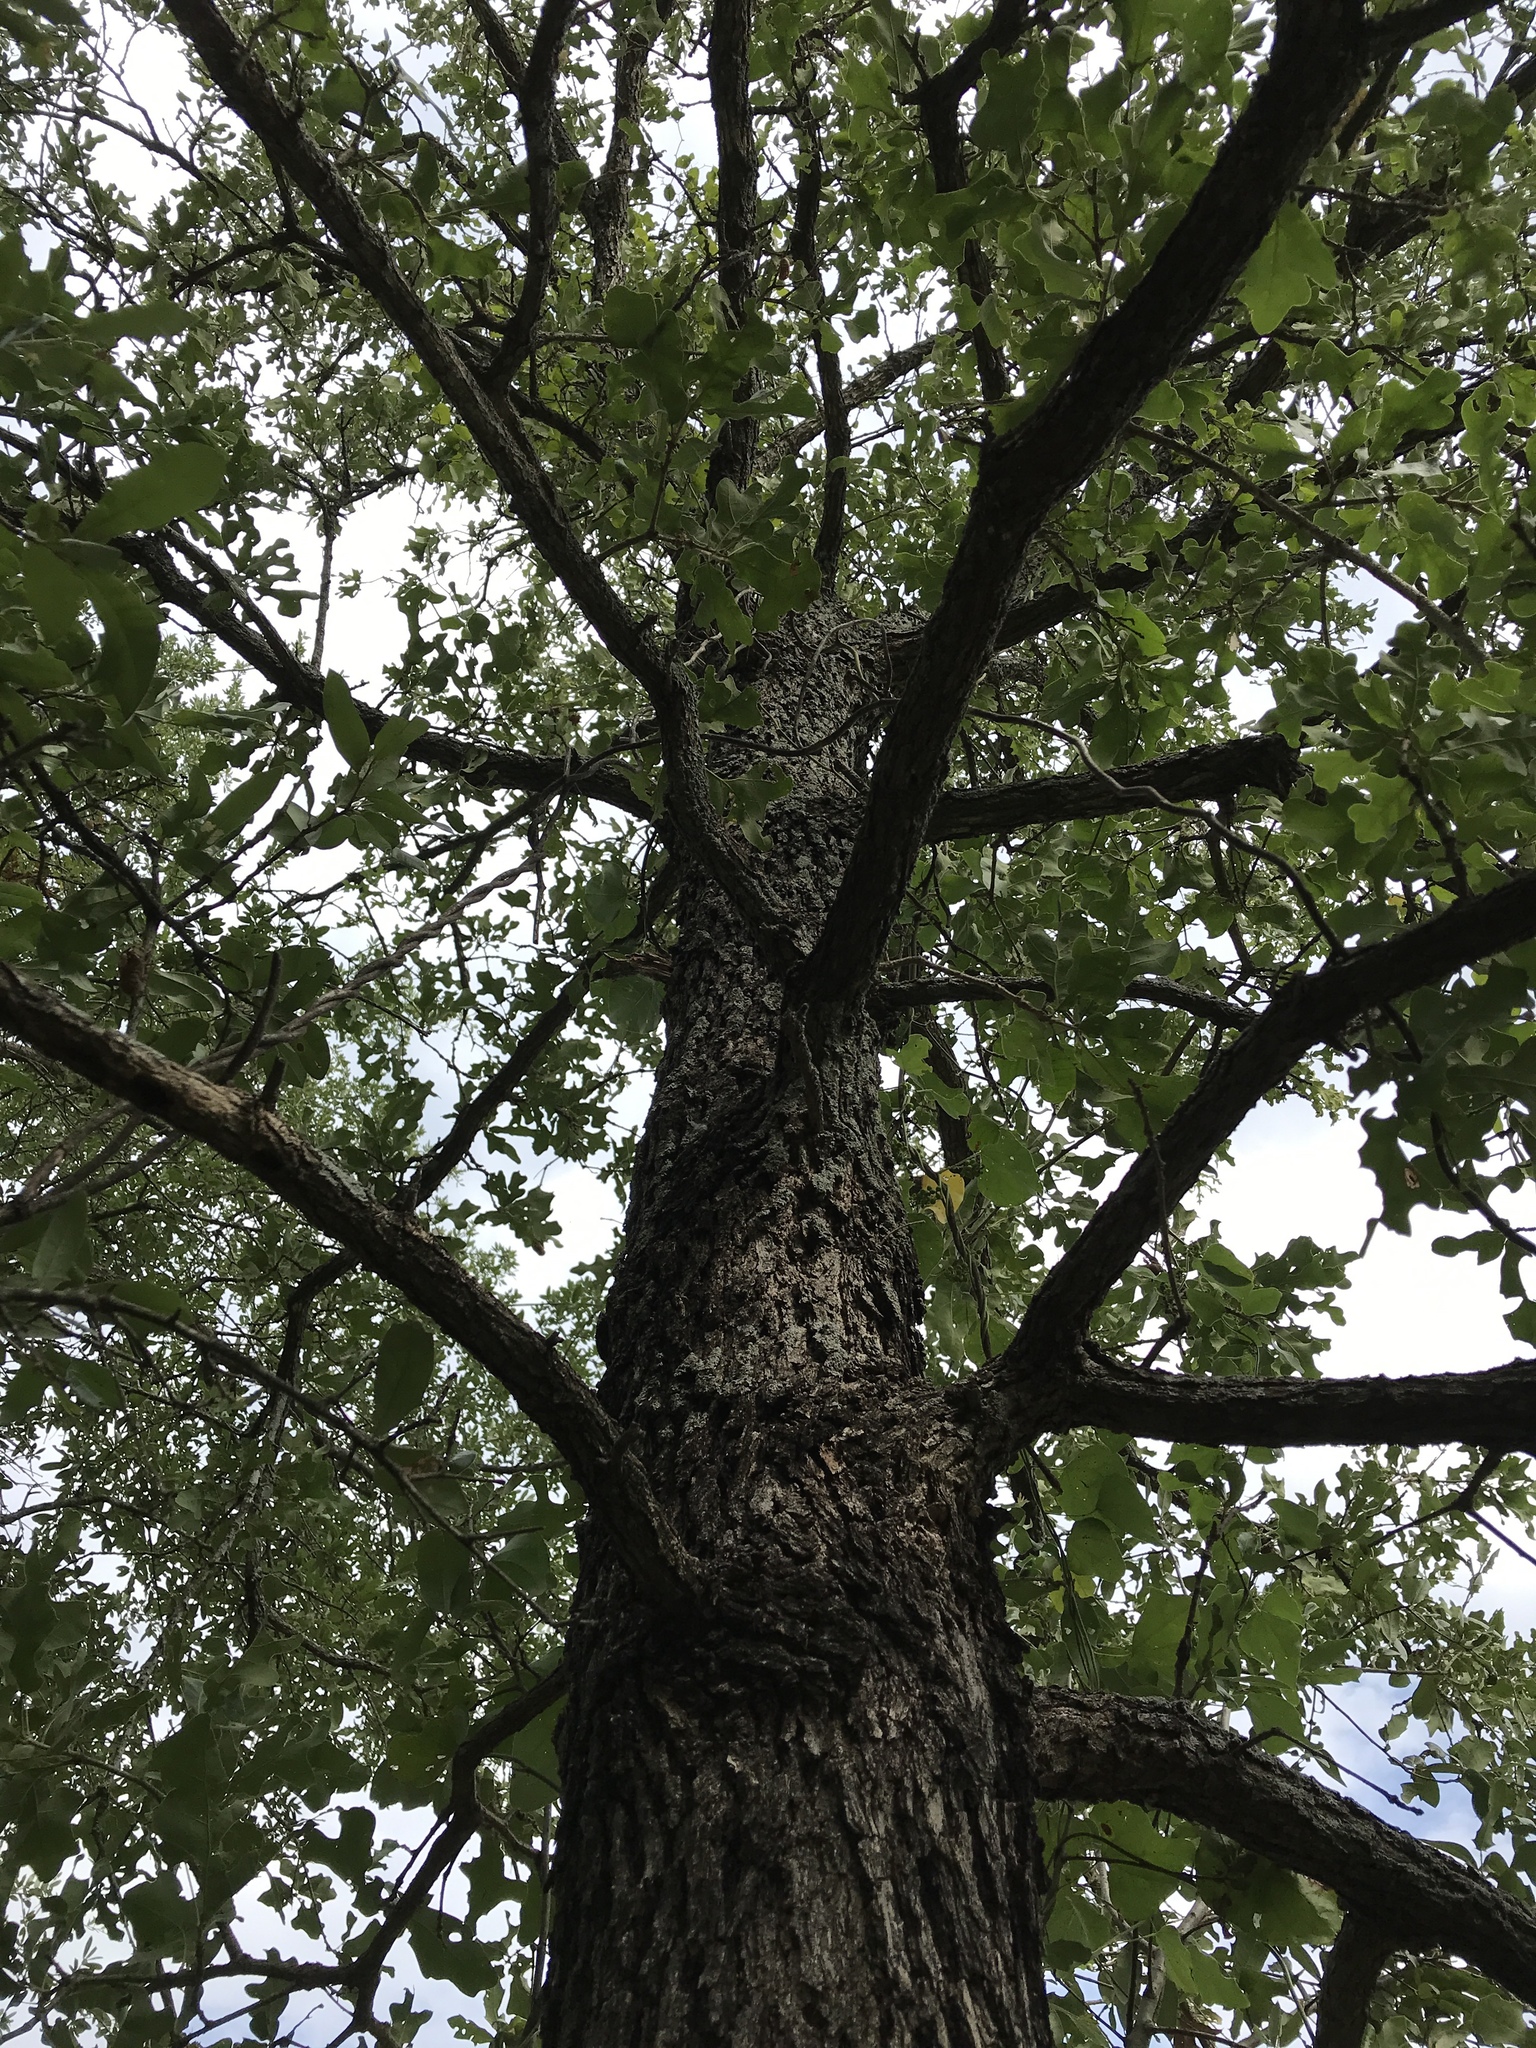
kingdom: Plantae
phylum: Tracheophyta
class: Magnoliopsida
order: Fagales
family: Fagaceae
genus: Quercus
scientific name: Quercus stellata
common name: Post oak
